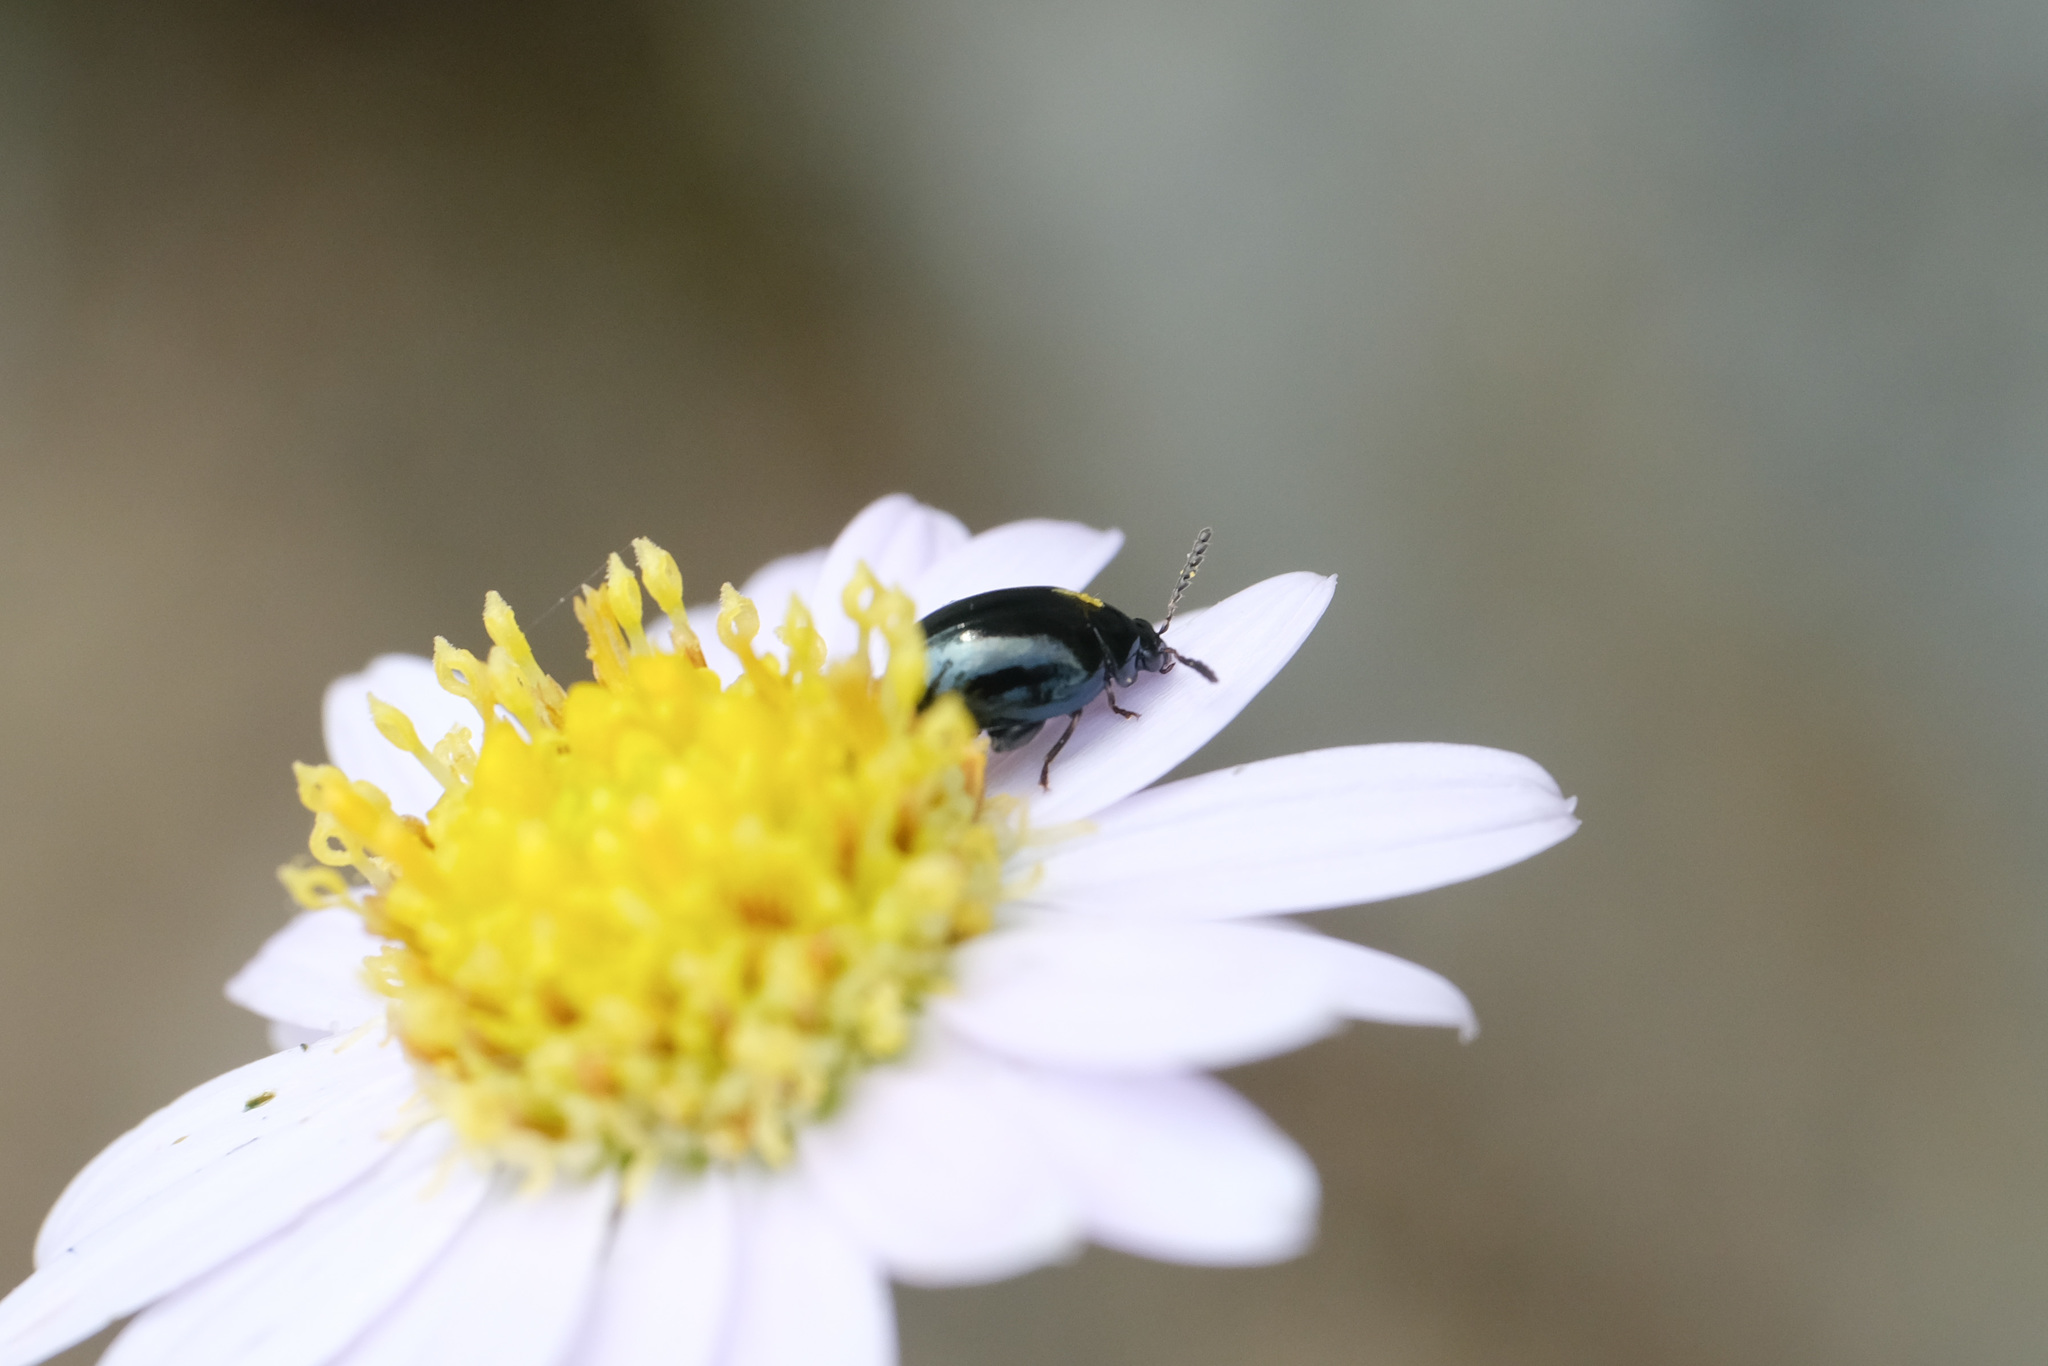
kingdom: Animalia
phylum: Arthropoda
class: Insecta
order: Coleoptera
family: Chrysomelidae
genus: Nonarthra
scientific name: Nonarthra
